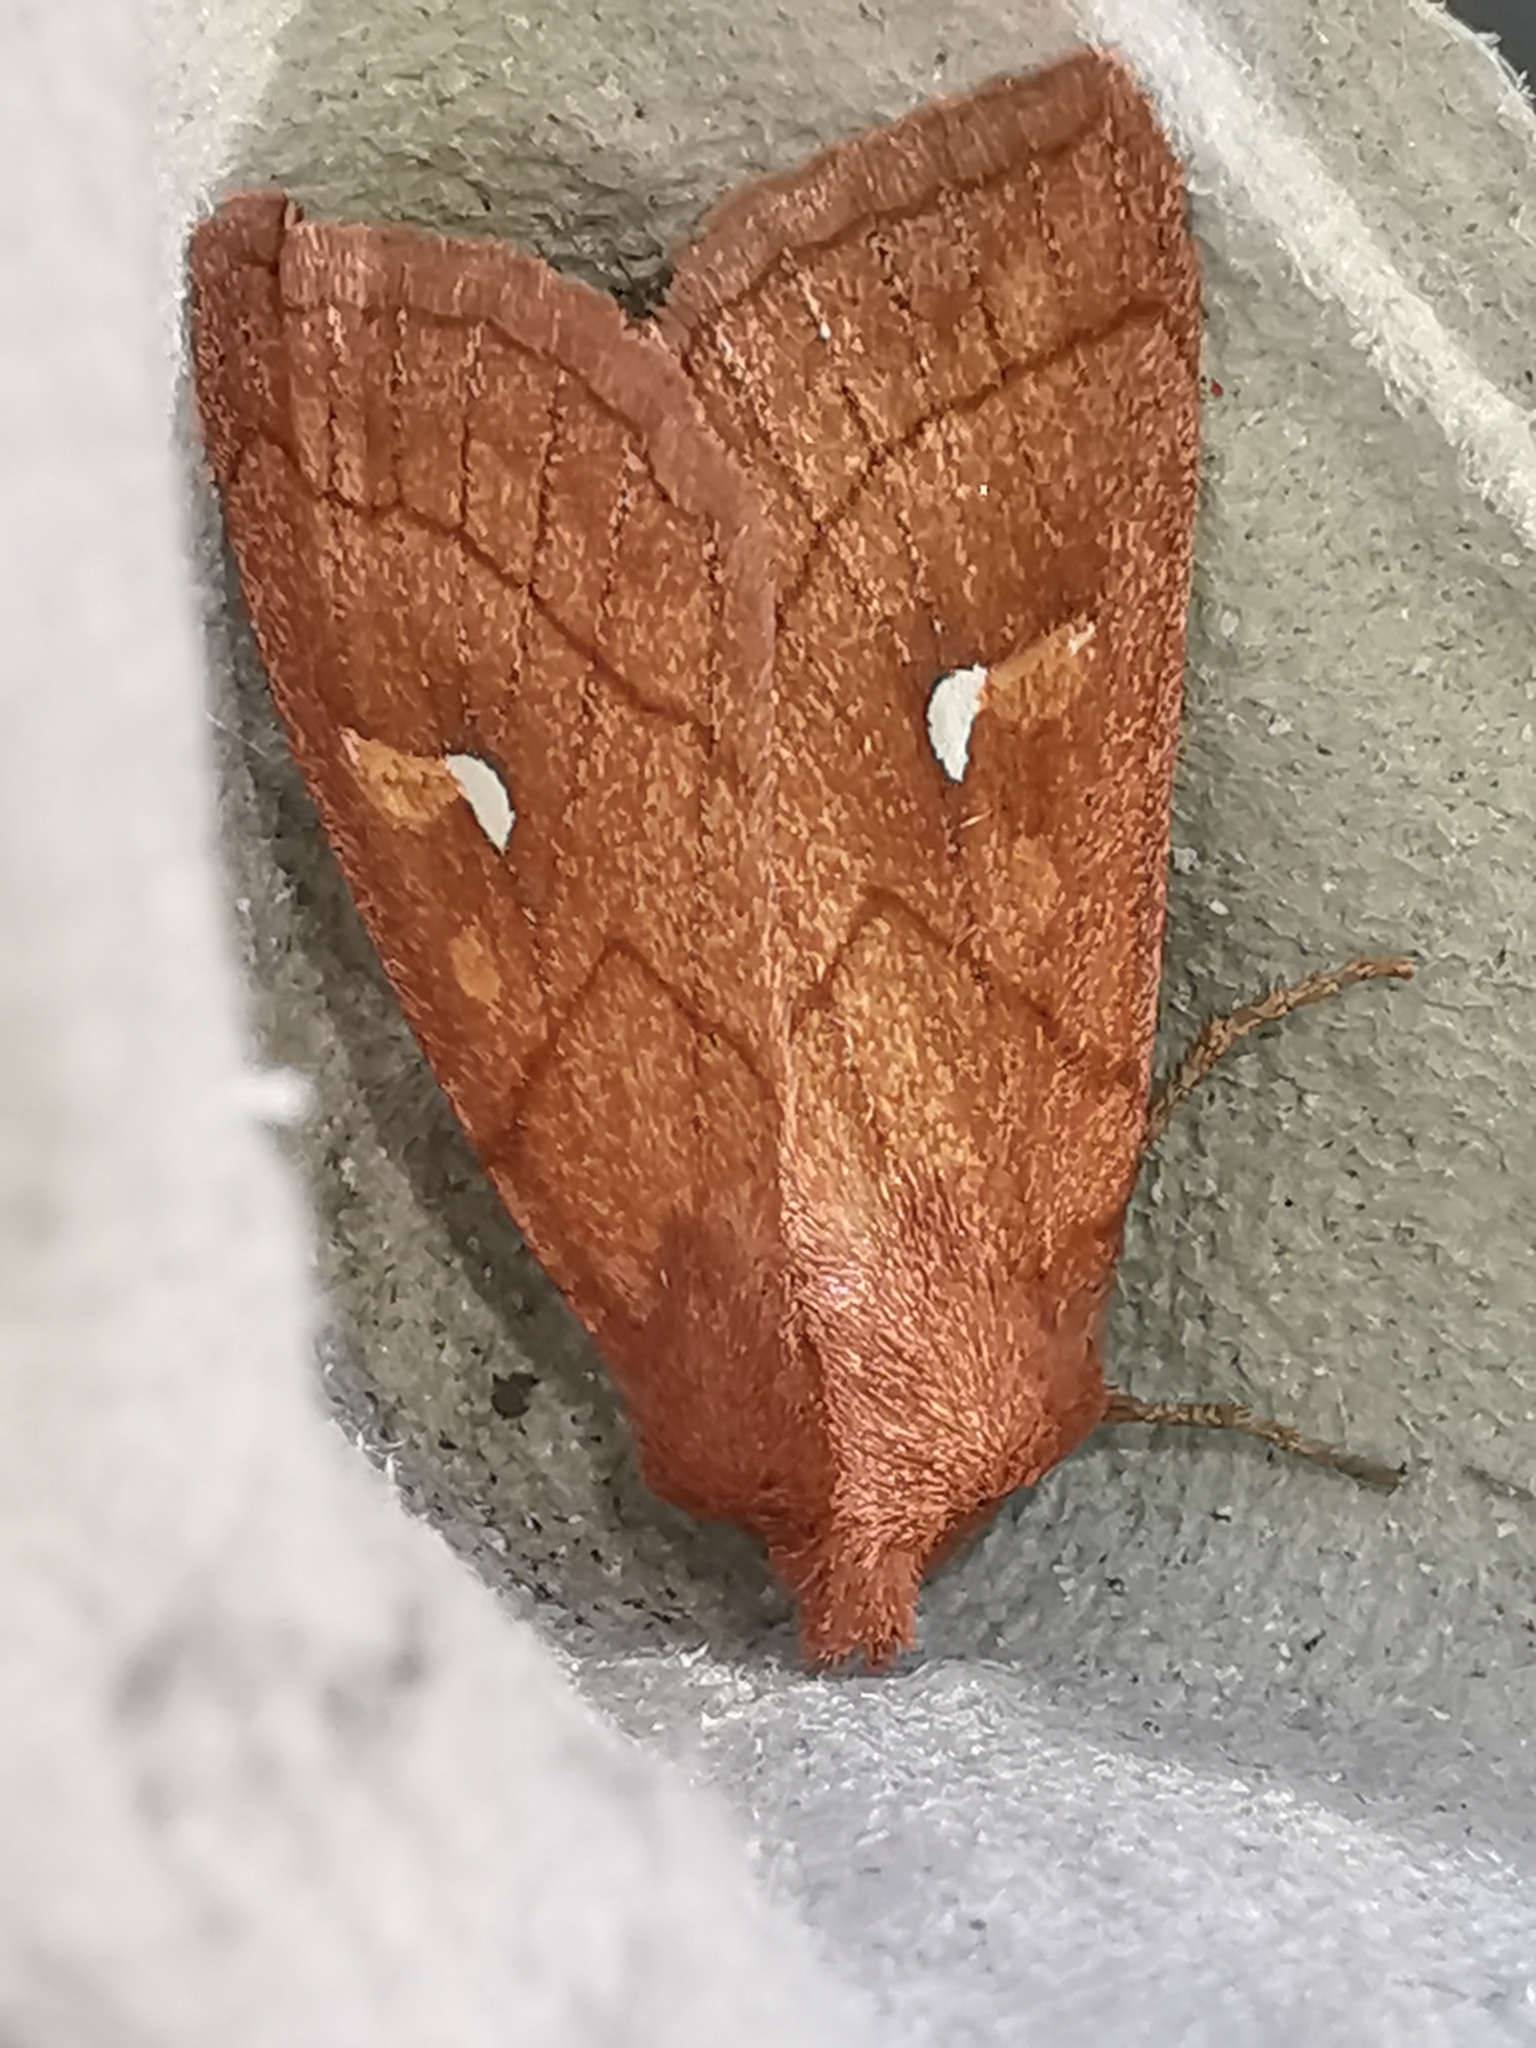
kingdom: Animalia
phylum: Arthropoda
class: Insecta
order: Lepidoptera
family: Noctuidae
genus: Mythimna
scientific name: Mythimna conigera
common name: Brown-line bright-eye
